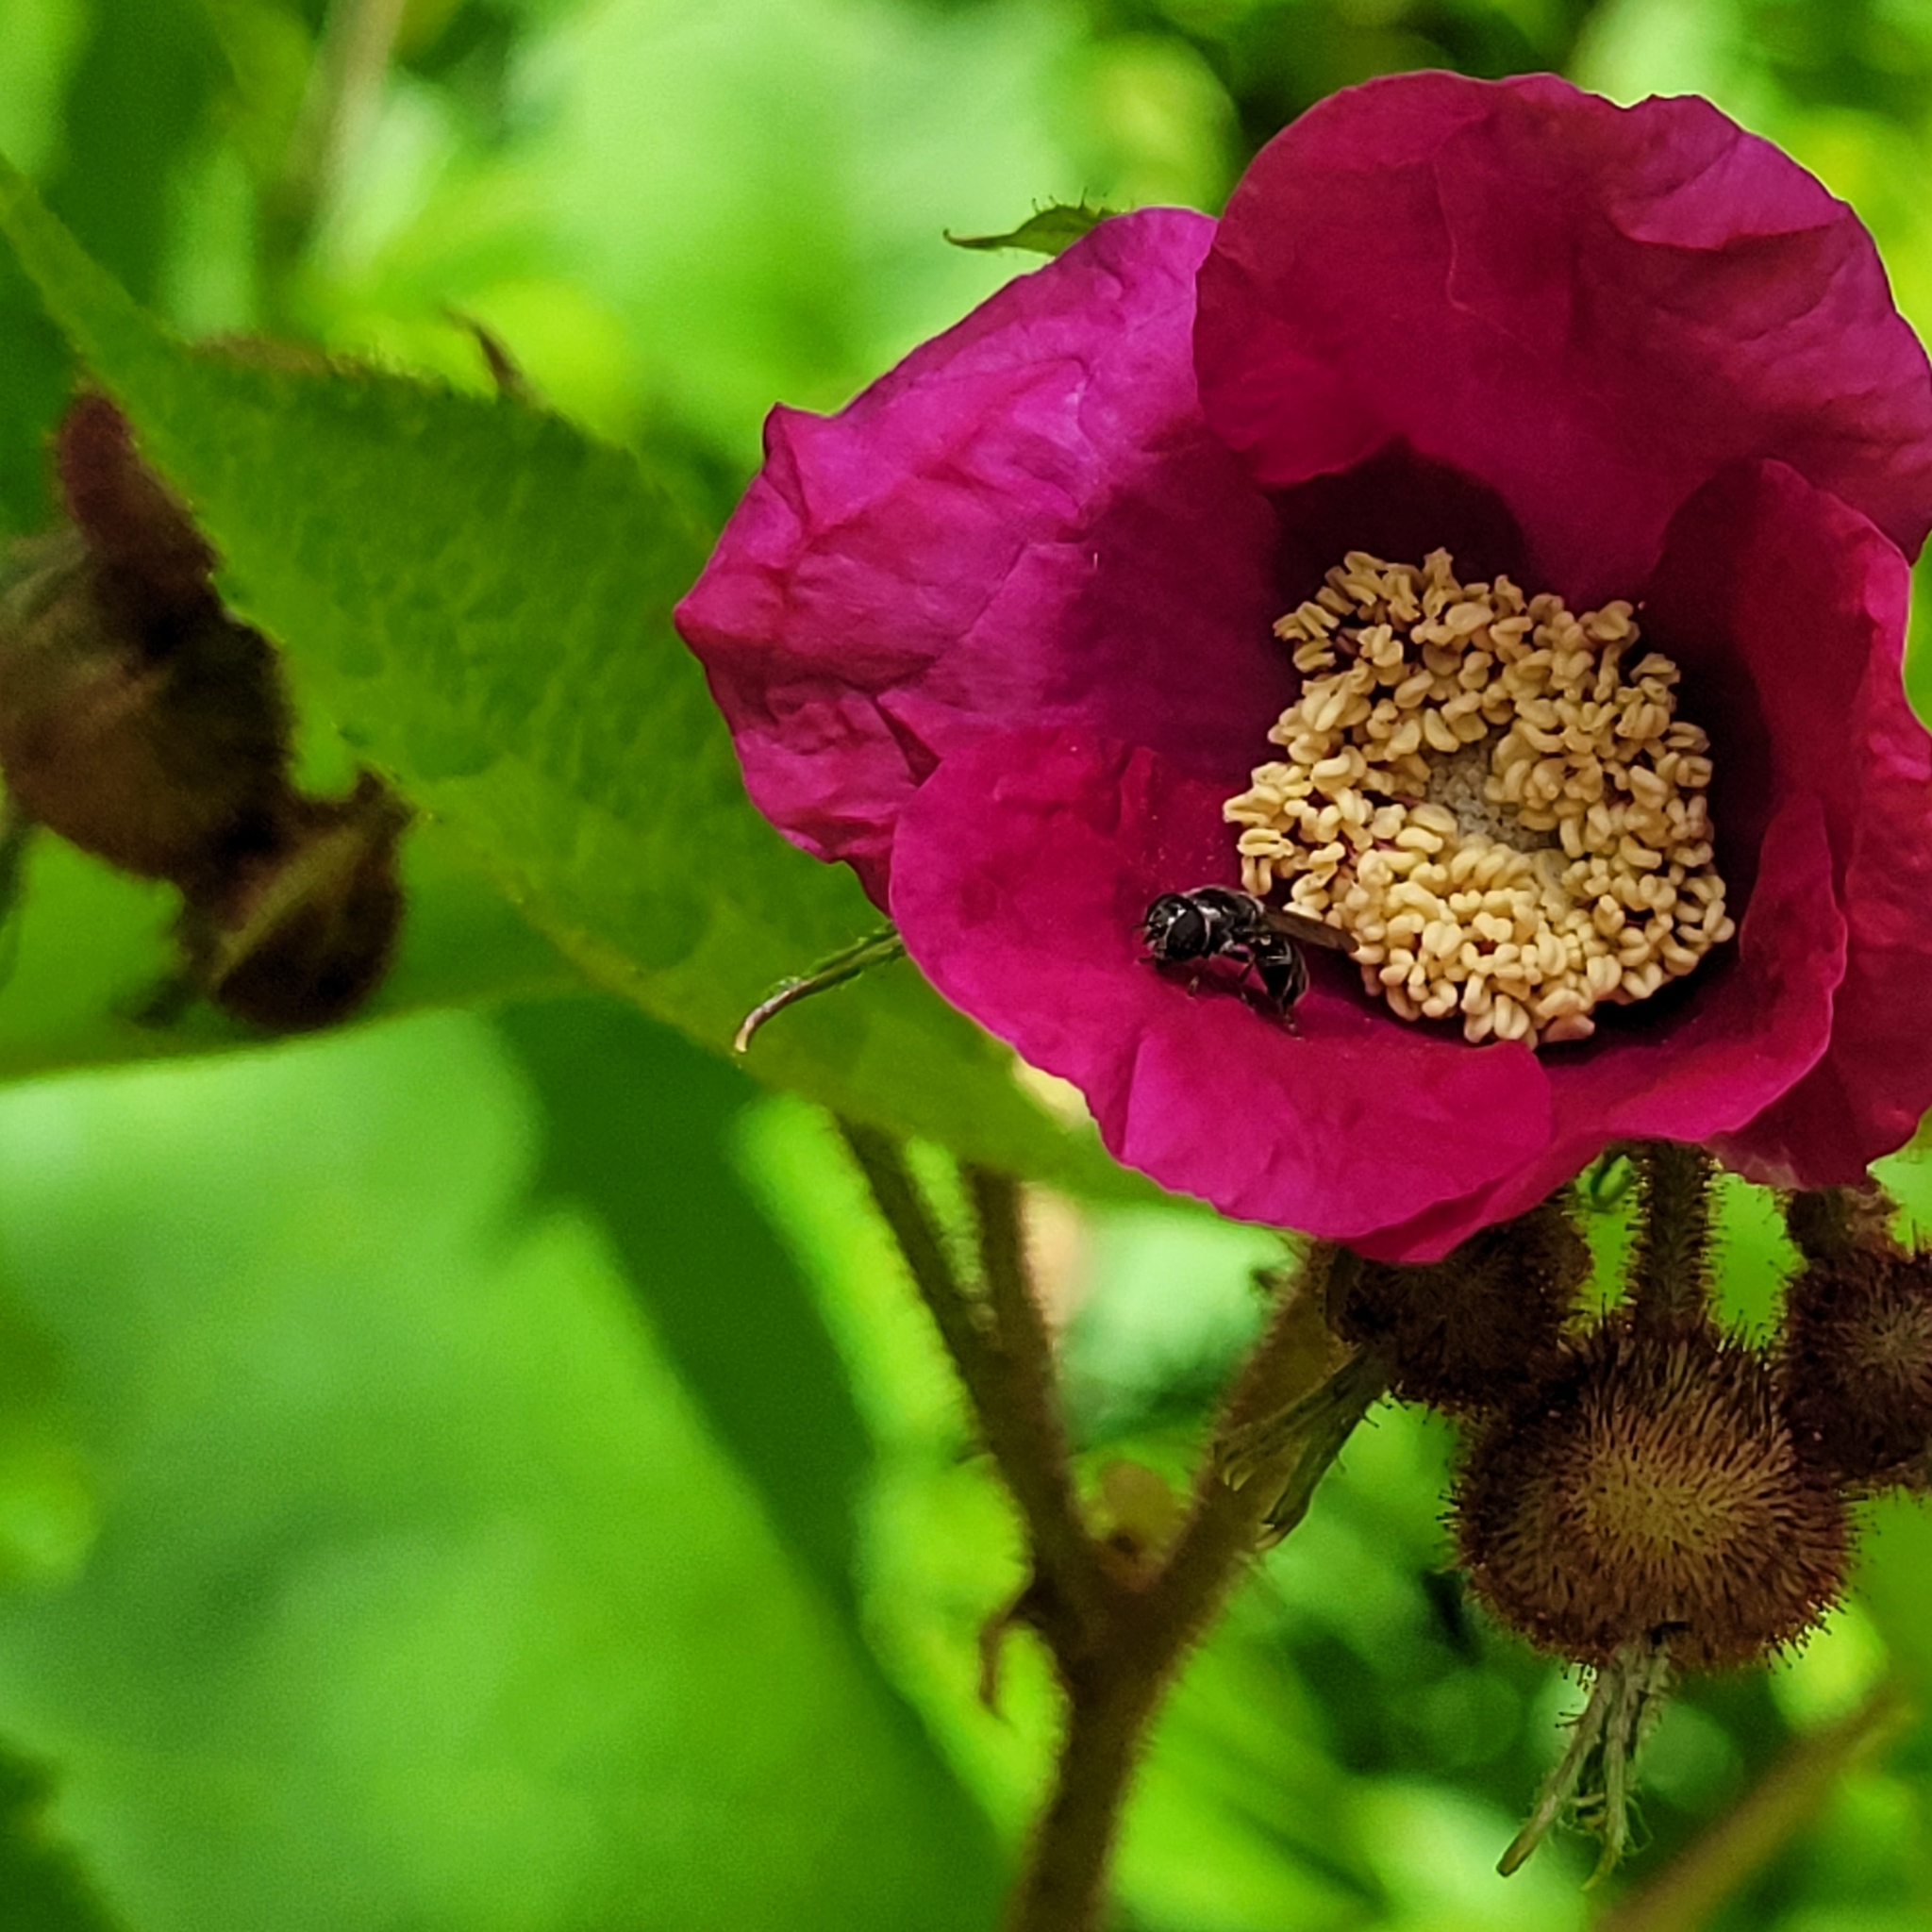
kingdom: Plantae
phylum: Tracheophyta
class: Magnoliopsida
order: Rosales
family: Rosaceae
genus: Rubus
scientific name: Rubus odoratus
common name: Purple-flowered raspberry
